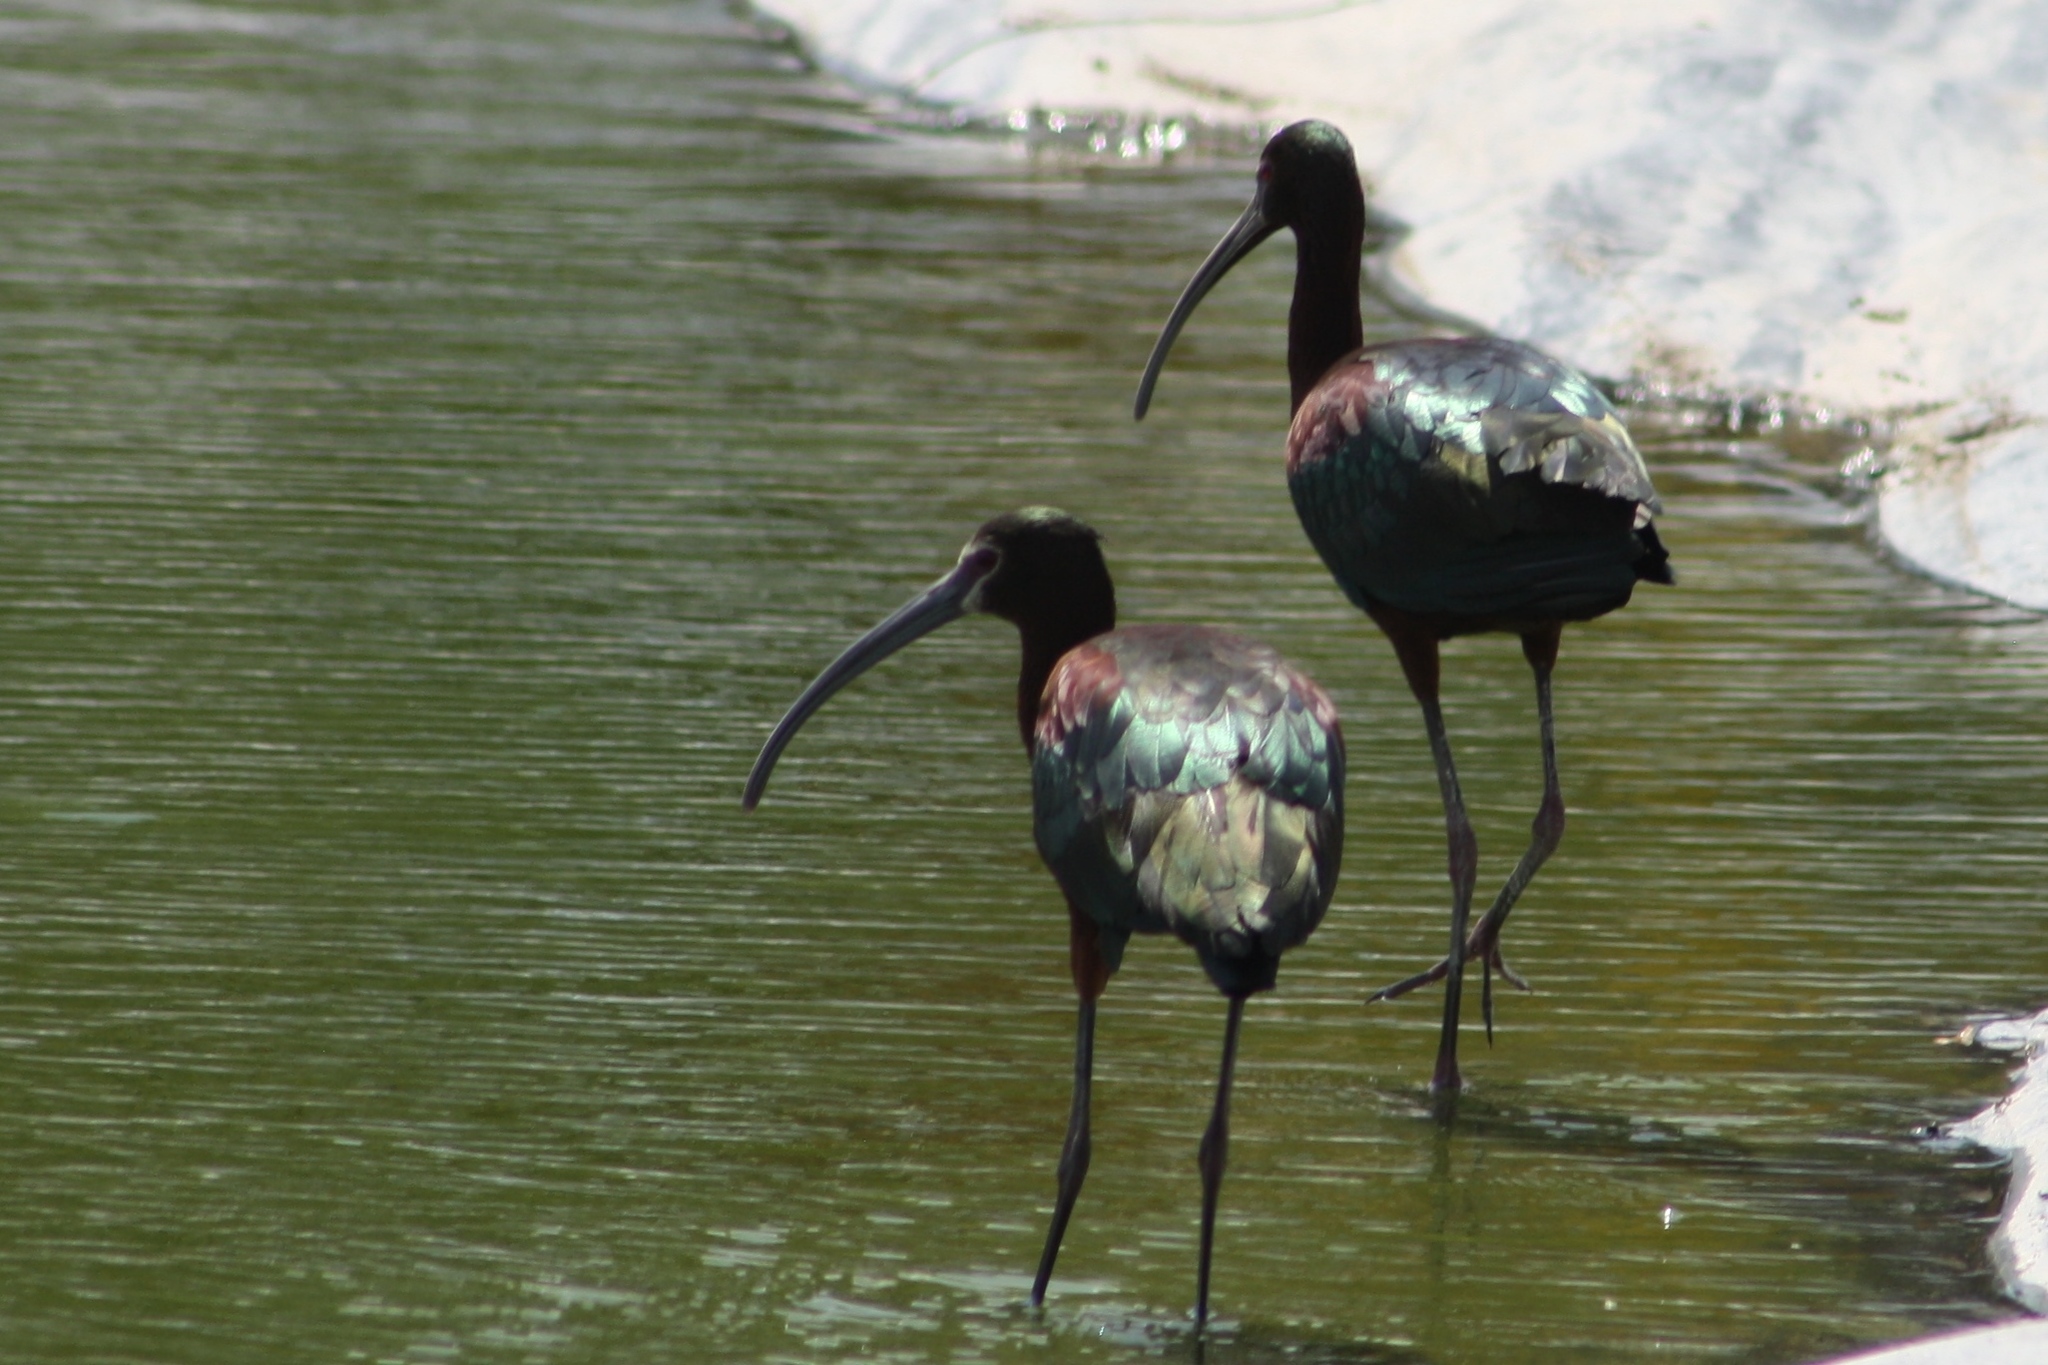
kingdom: Animalia
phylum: Chordata
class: Aves
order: Pelecaniformes
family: Threskiornithidae
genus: Plegadis
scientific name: Plegadis chihi
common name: White-faced ibis
